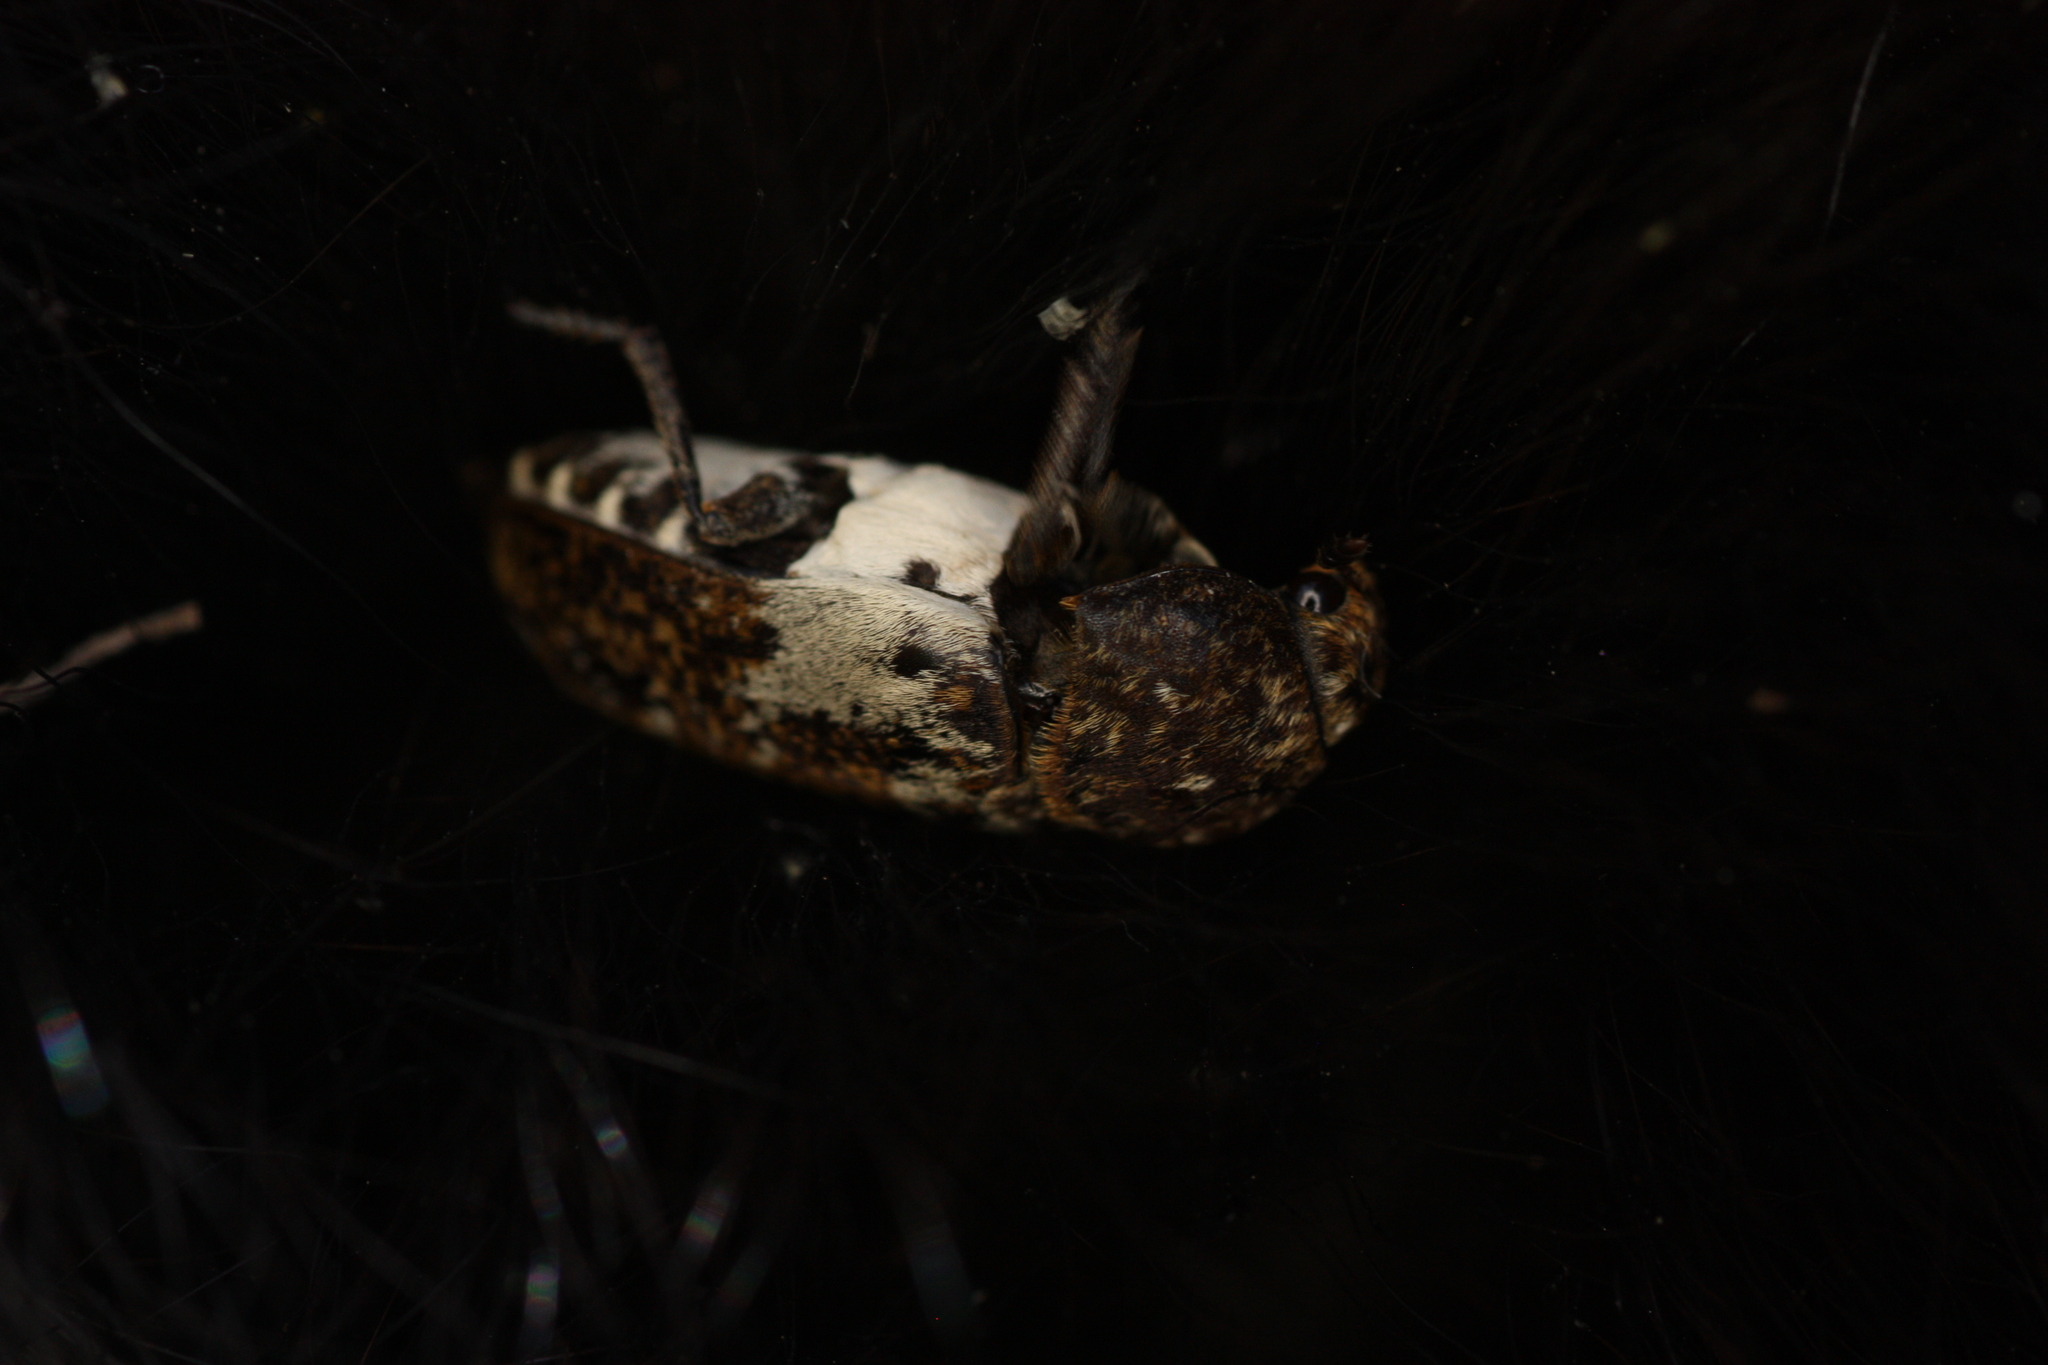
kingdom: Animalia
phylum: Arthropoda
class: Insecta
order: Coleoptera
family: Dermestidae
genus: Dermestes
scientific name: Dermestes marmoratus
